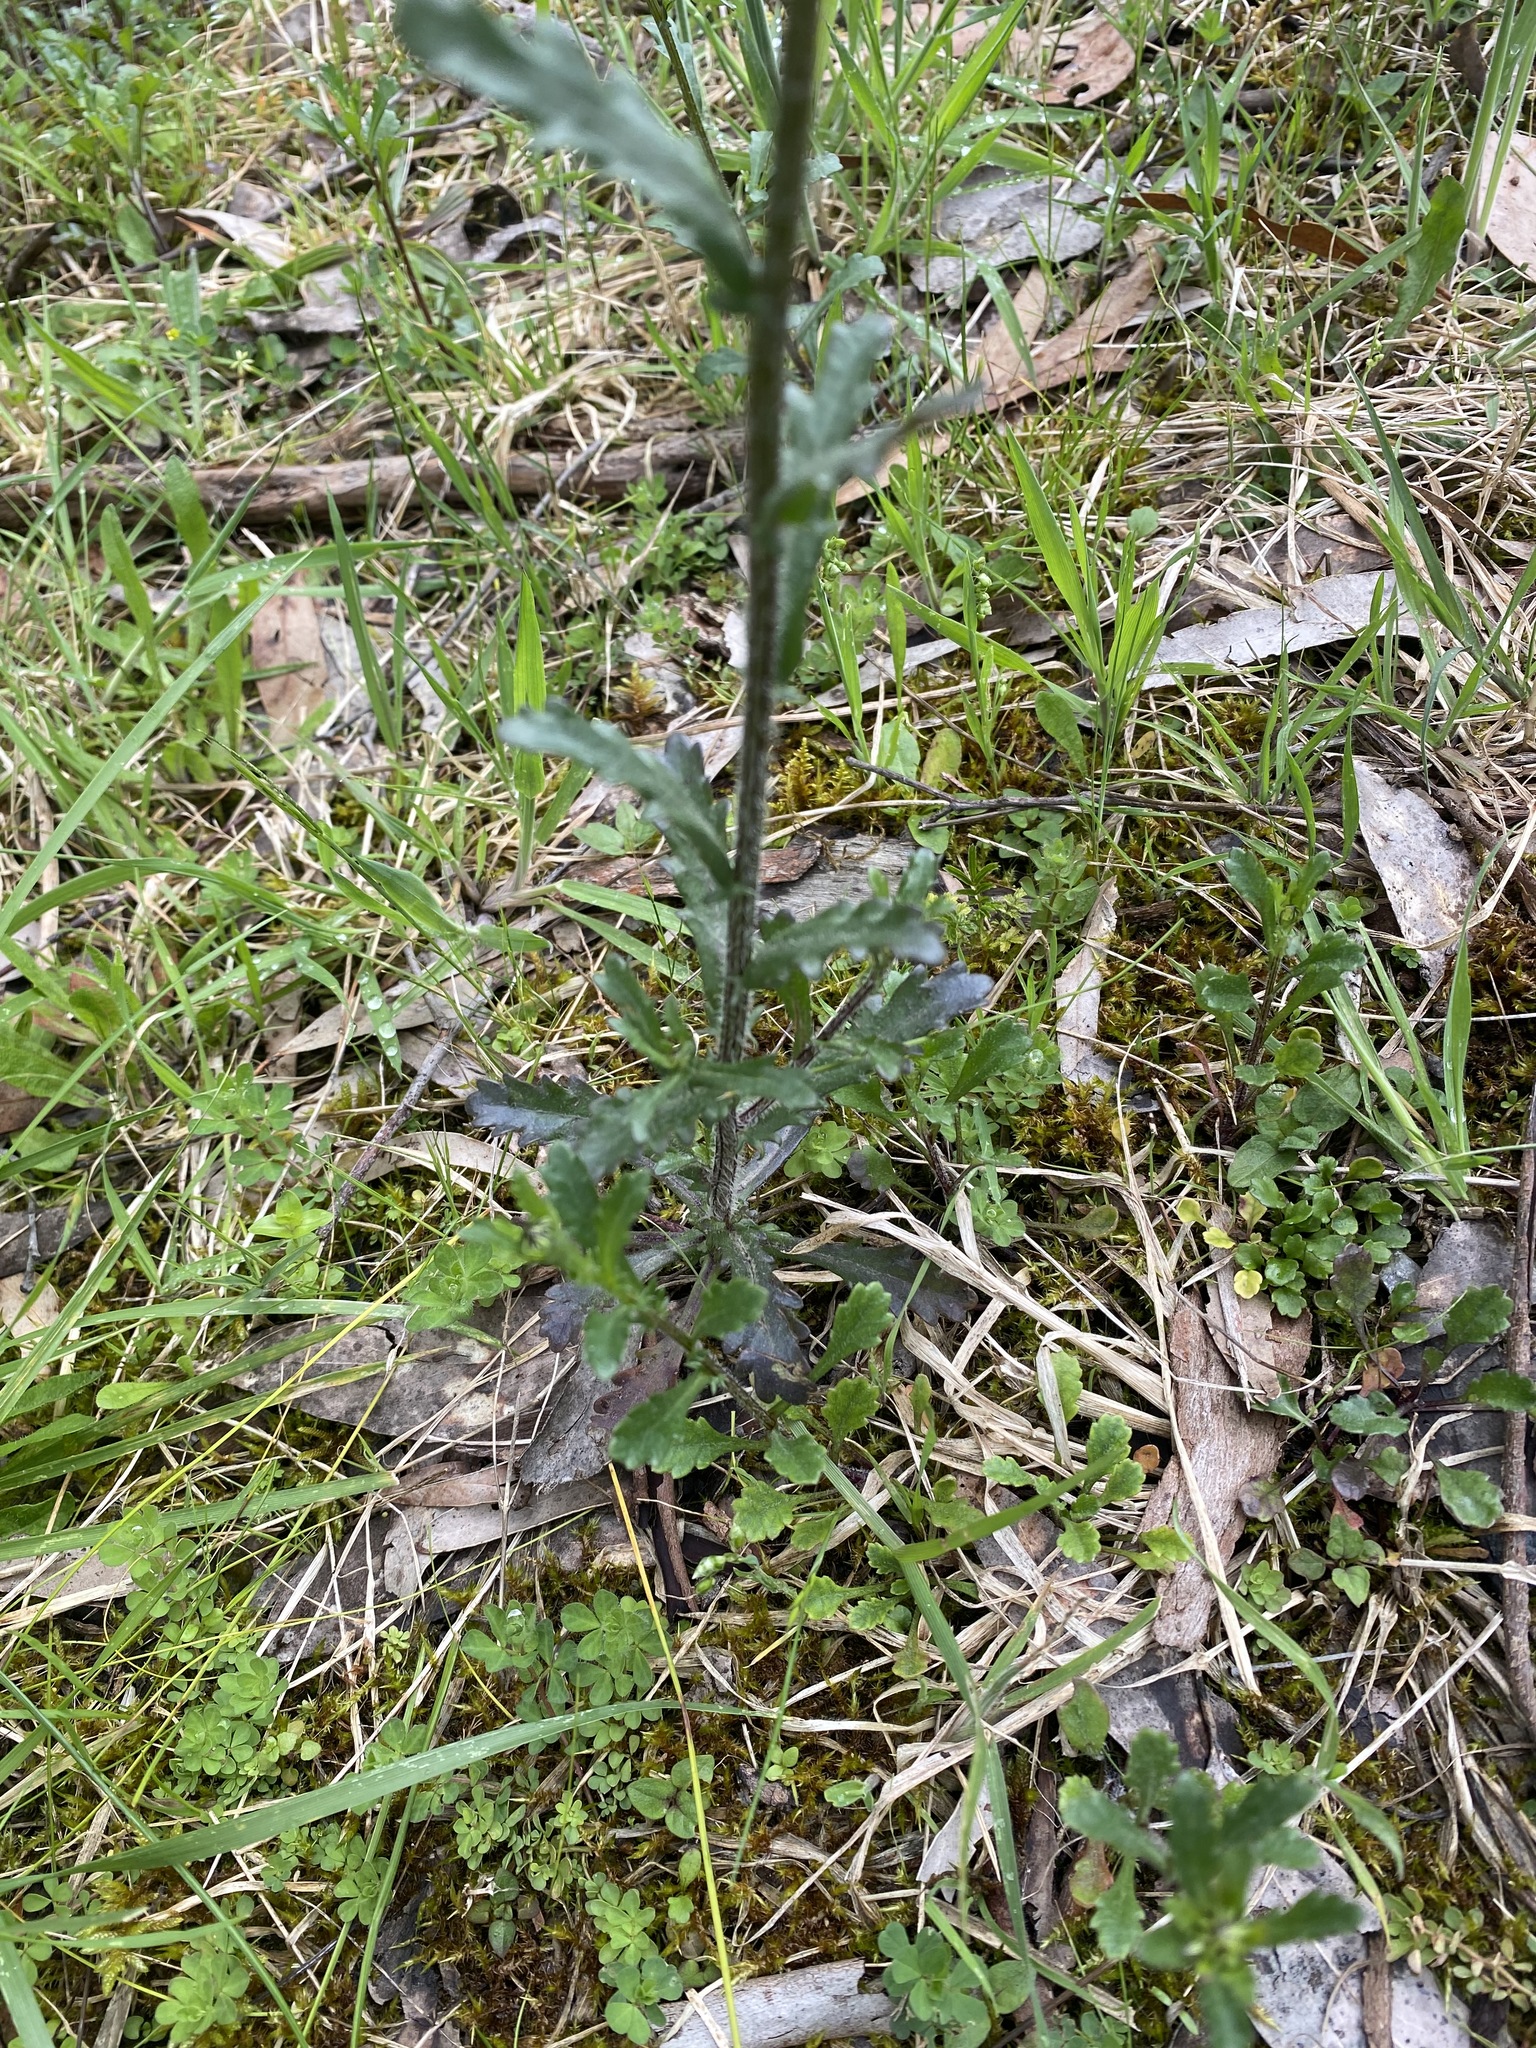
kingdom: Plantae
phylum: Tracheophyta
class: Magnoliopsida
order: Asterales
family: Asteraceae
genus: Leucanthemum
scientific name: Leucanthemum vulgare
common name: Oxeye daisy
